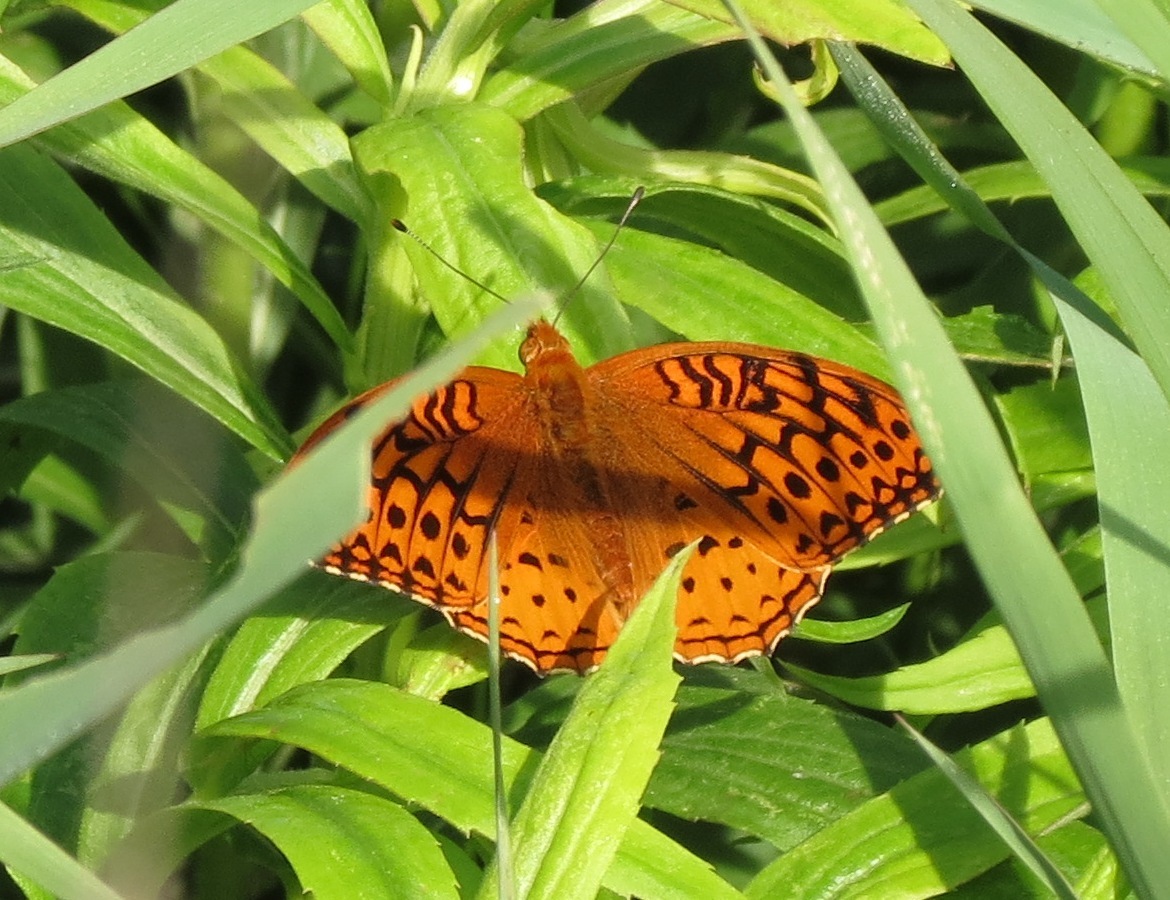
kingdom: Animalia
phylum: Arthropoda
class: Insecta
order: Lepidoptera
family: Nymphalidae
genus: Speyeria
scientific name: Speyeria cybele
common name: Great spangled fritillary
